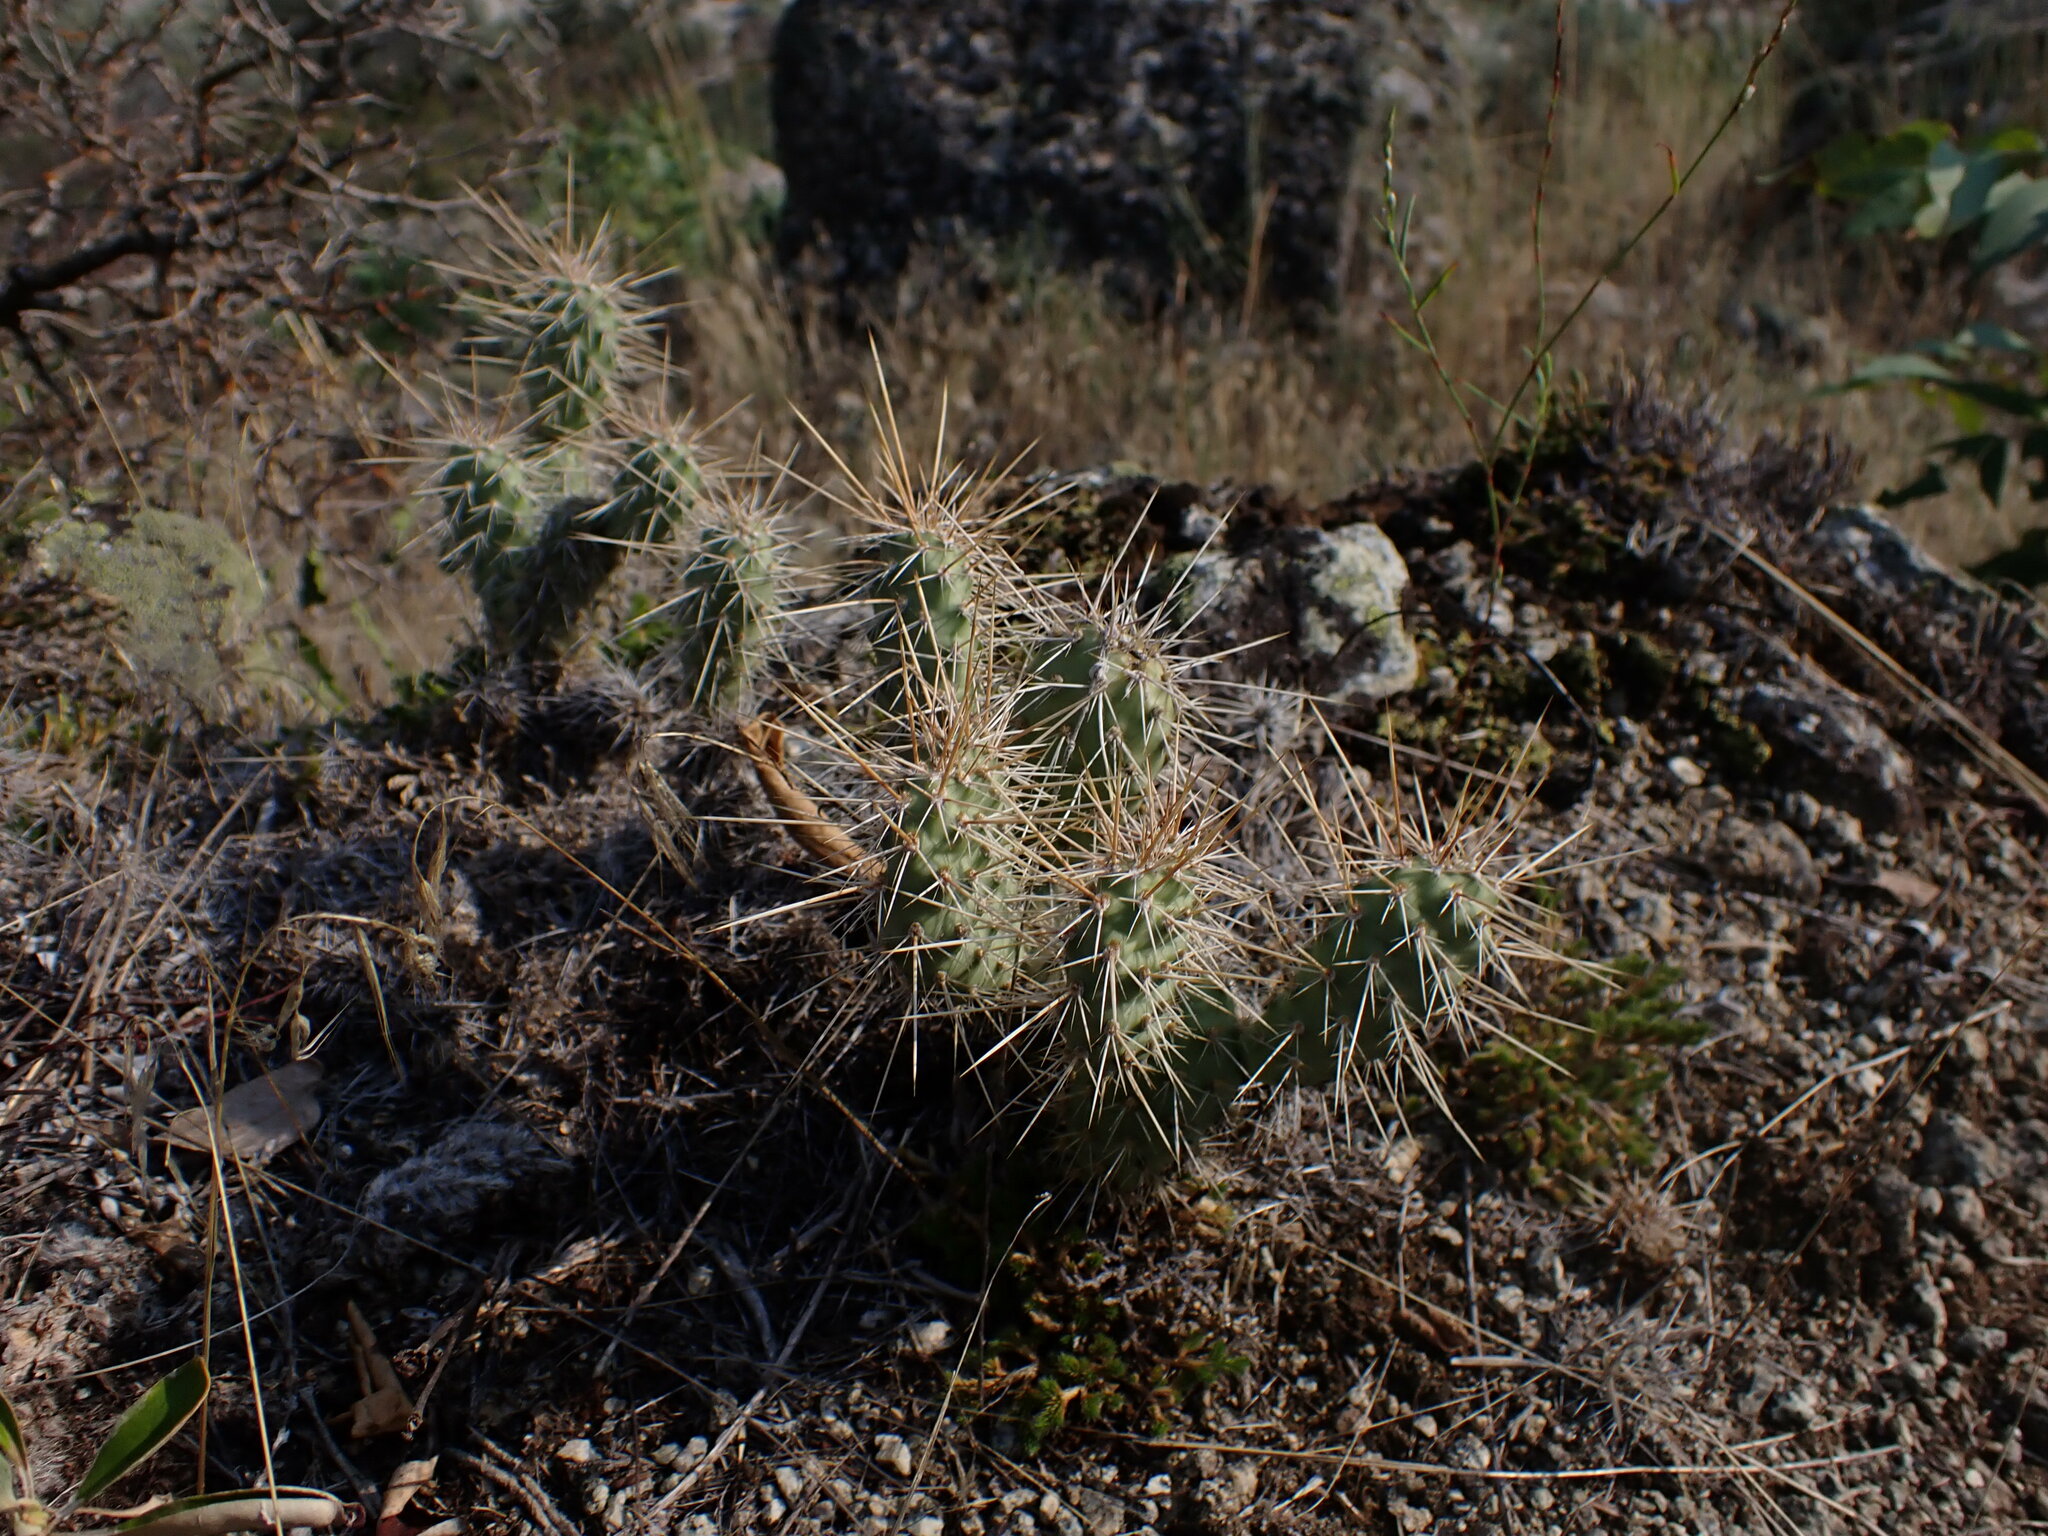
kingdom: Plantae
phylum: Tracheophyta
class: Magnoliopsida
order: Caryophyllales
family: Cactaceae
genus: Opuntia
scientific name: Opuntia columbiana
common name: Columbia prickly-pear
